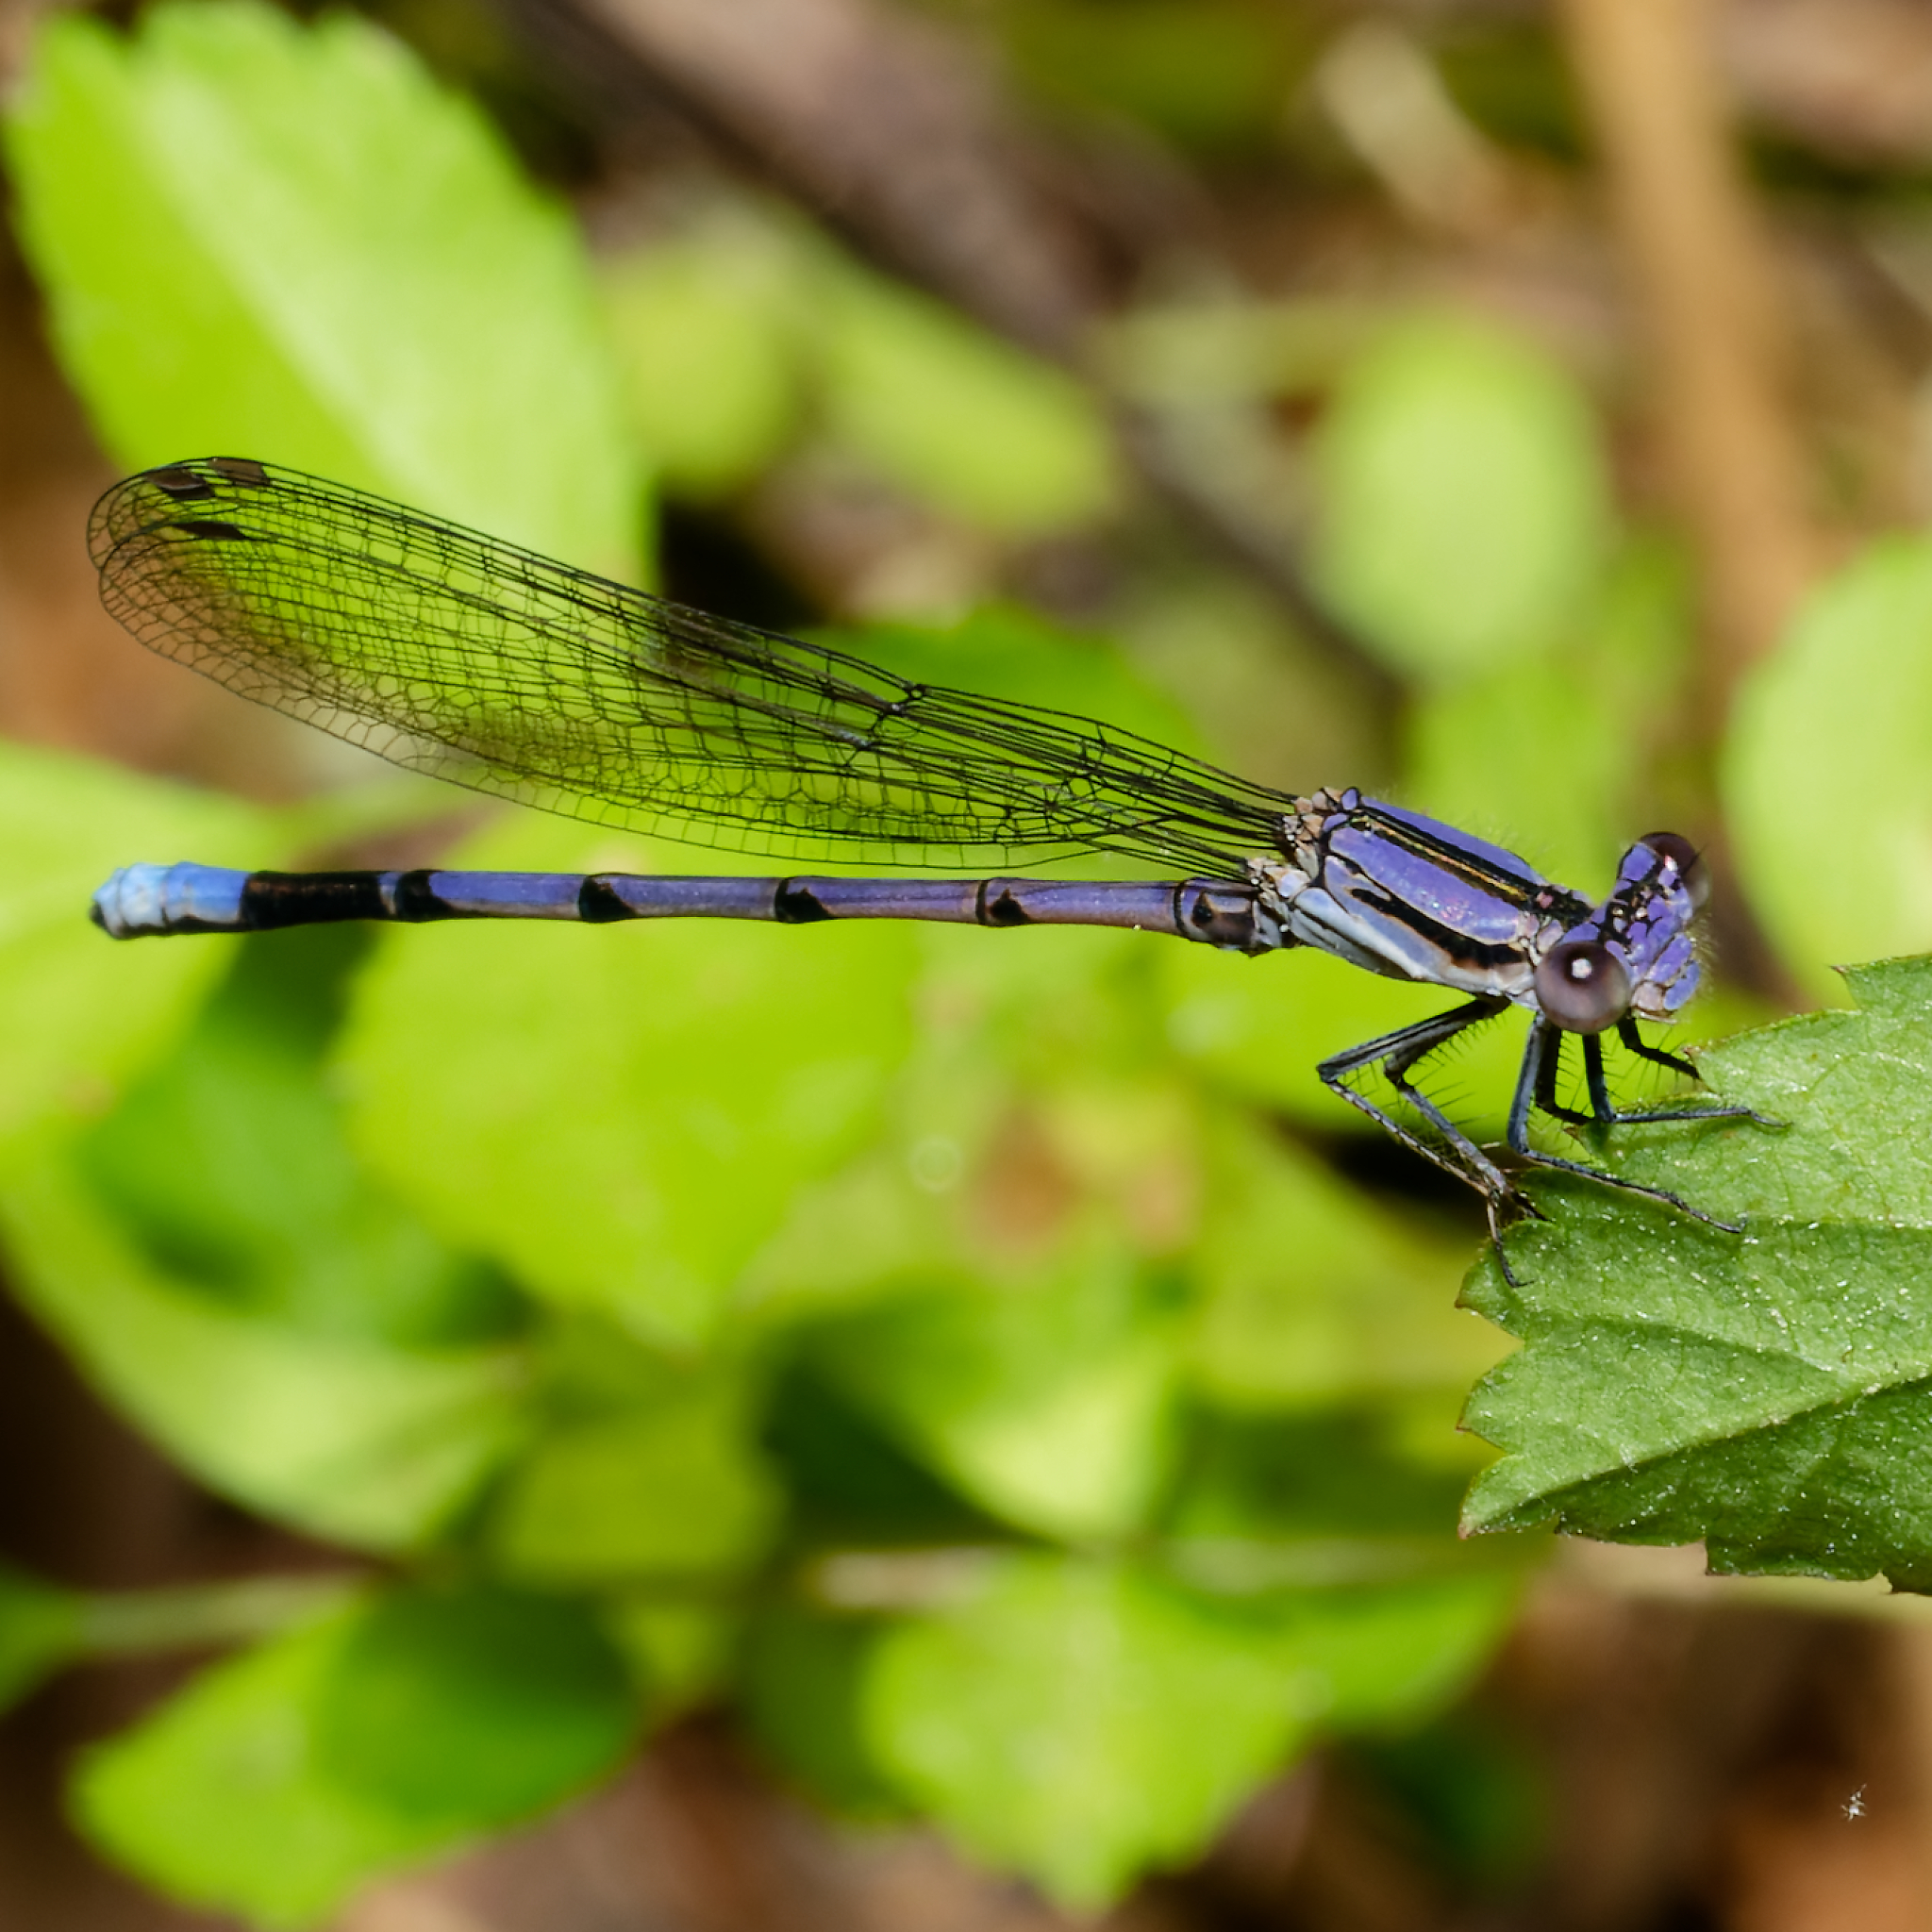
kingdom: Animalia
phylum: Arthropoda
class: Insecta
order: Odonata
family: Coenagrionidae
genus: Argia
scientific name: Argia fumipennis
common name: Variable dancer
